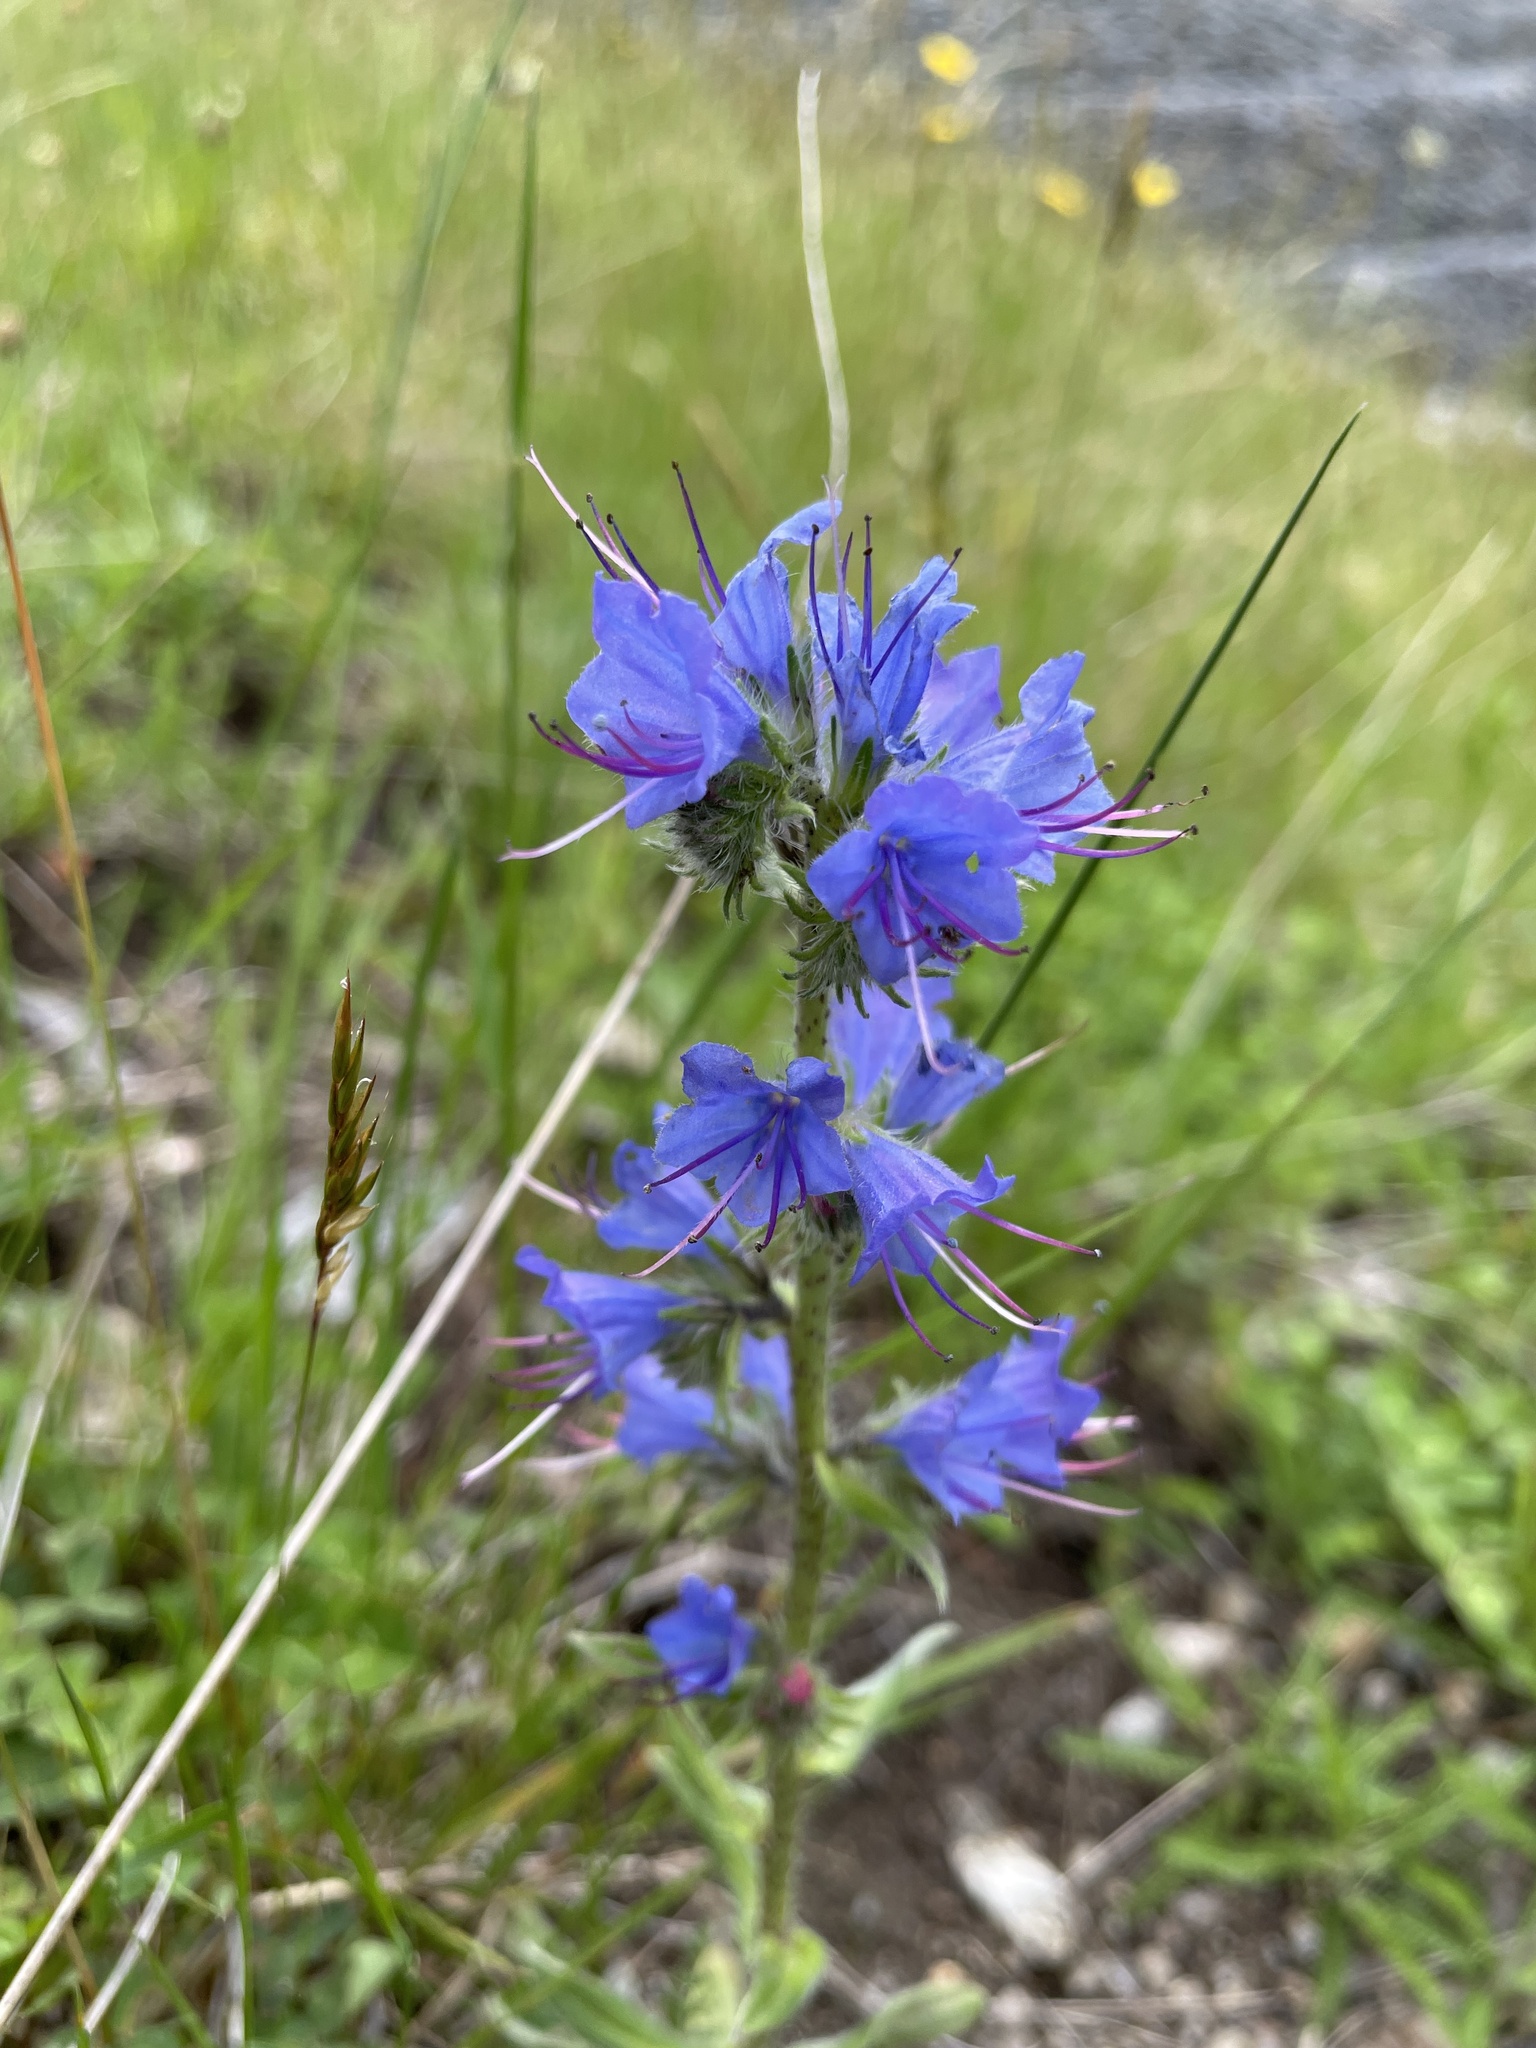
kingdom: Plantae
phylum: Tracheophyta
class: Magnoliopsida
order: Boraginales
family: Boraginaceae
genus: Echium
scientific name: Echium vulgare
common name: Common viper's bugloss
